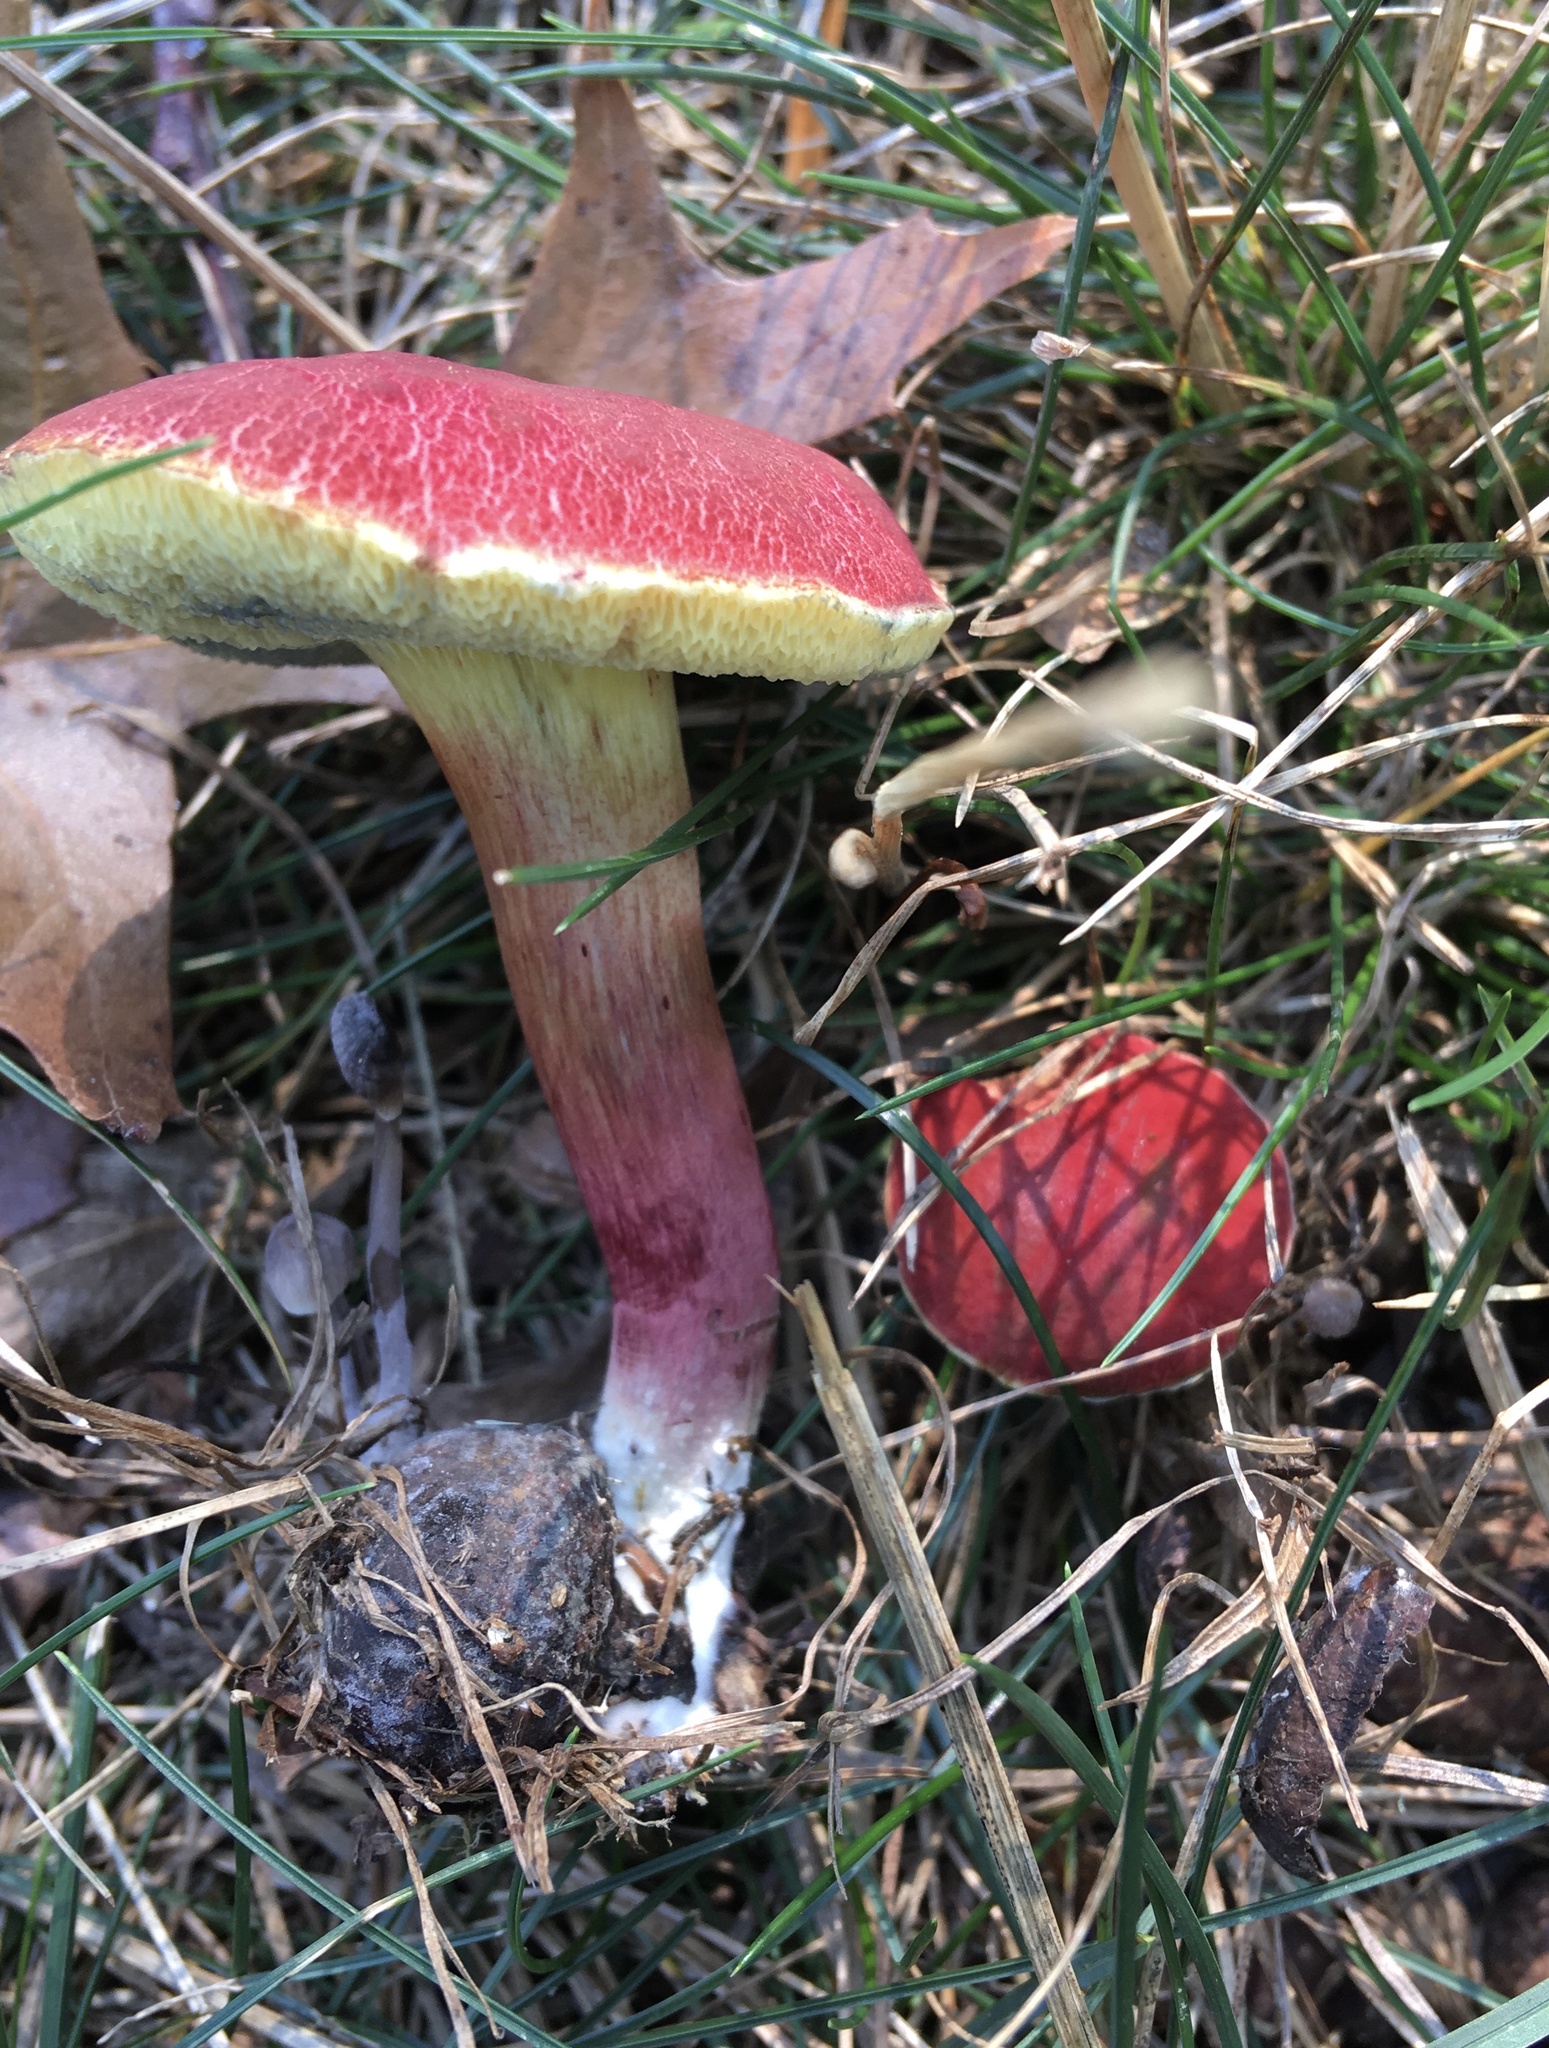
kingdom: Fungi
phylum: Basidiomycota
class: Agaricomycetes
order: Boletales
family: Boletaceae
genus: Hortiboletus
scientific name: Hortiboletus rubellus
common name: Ruby bolete
